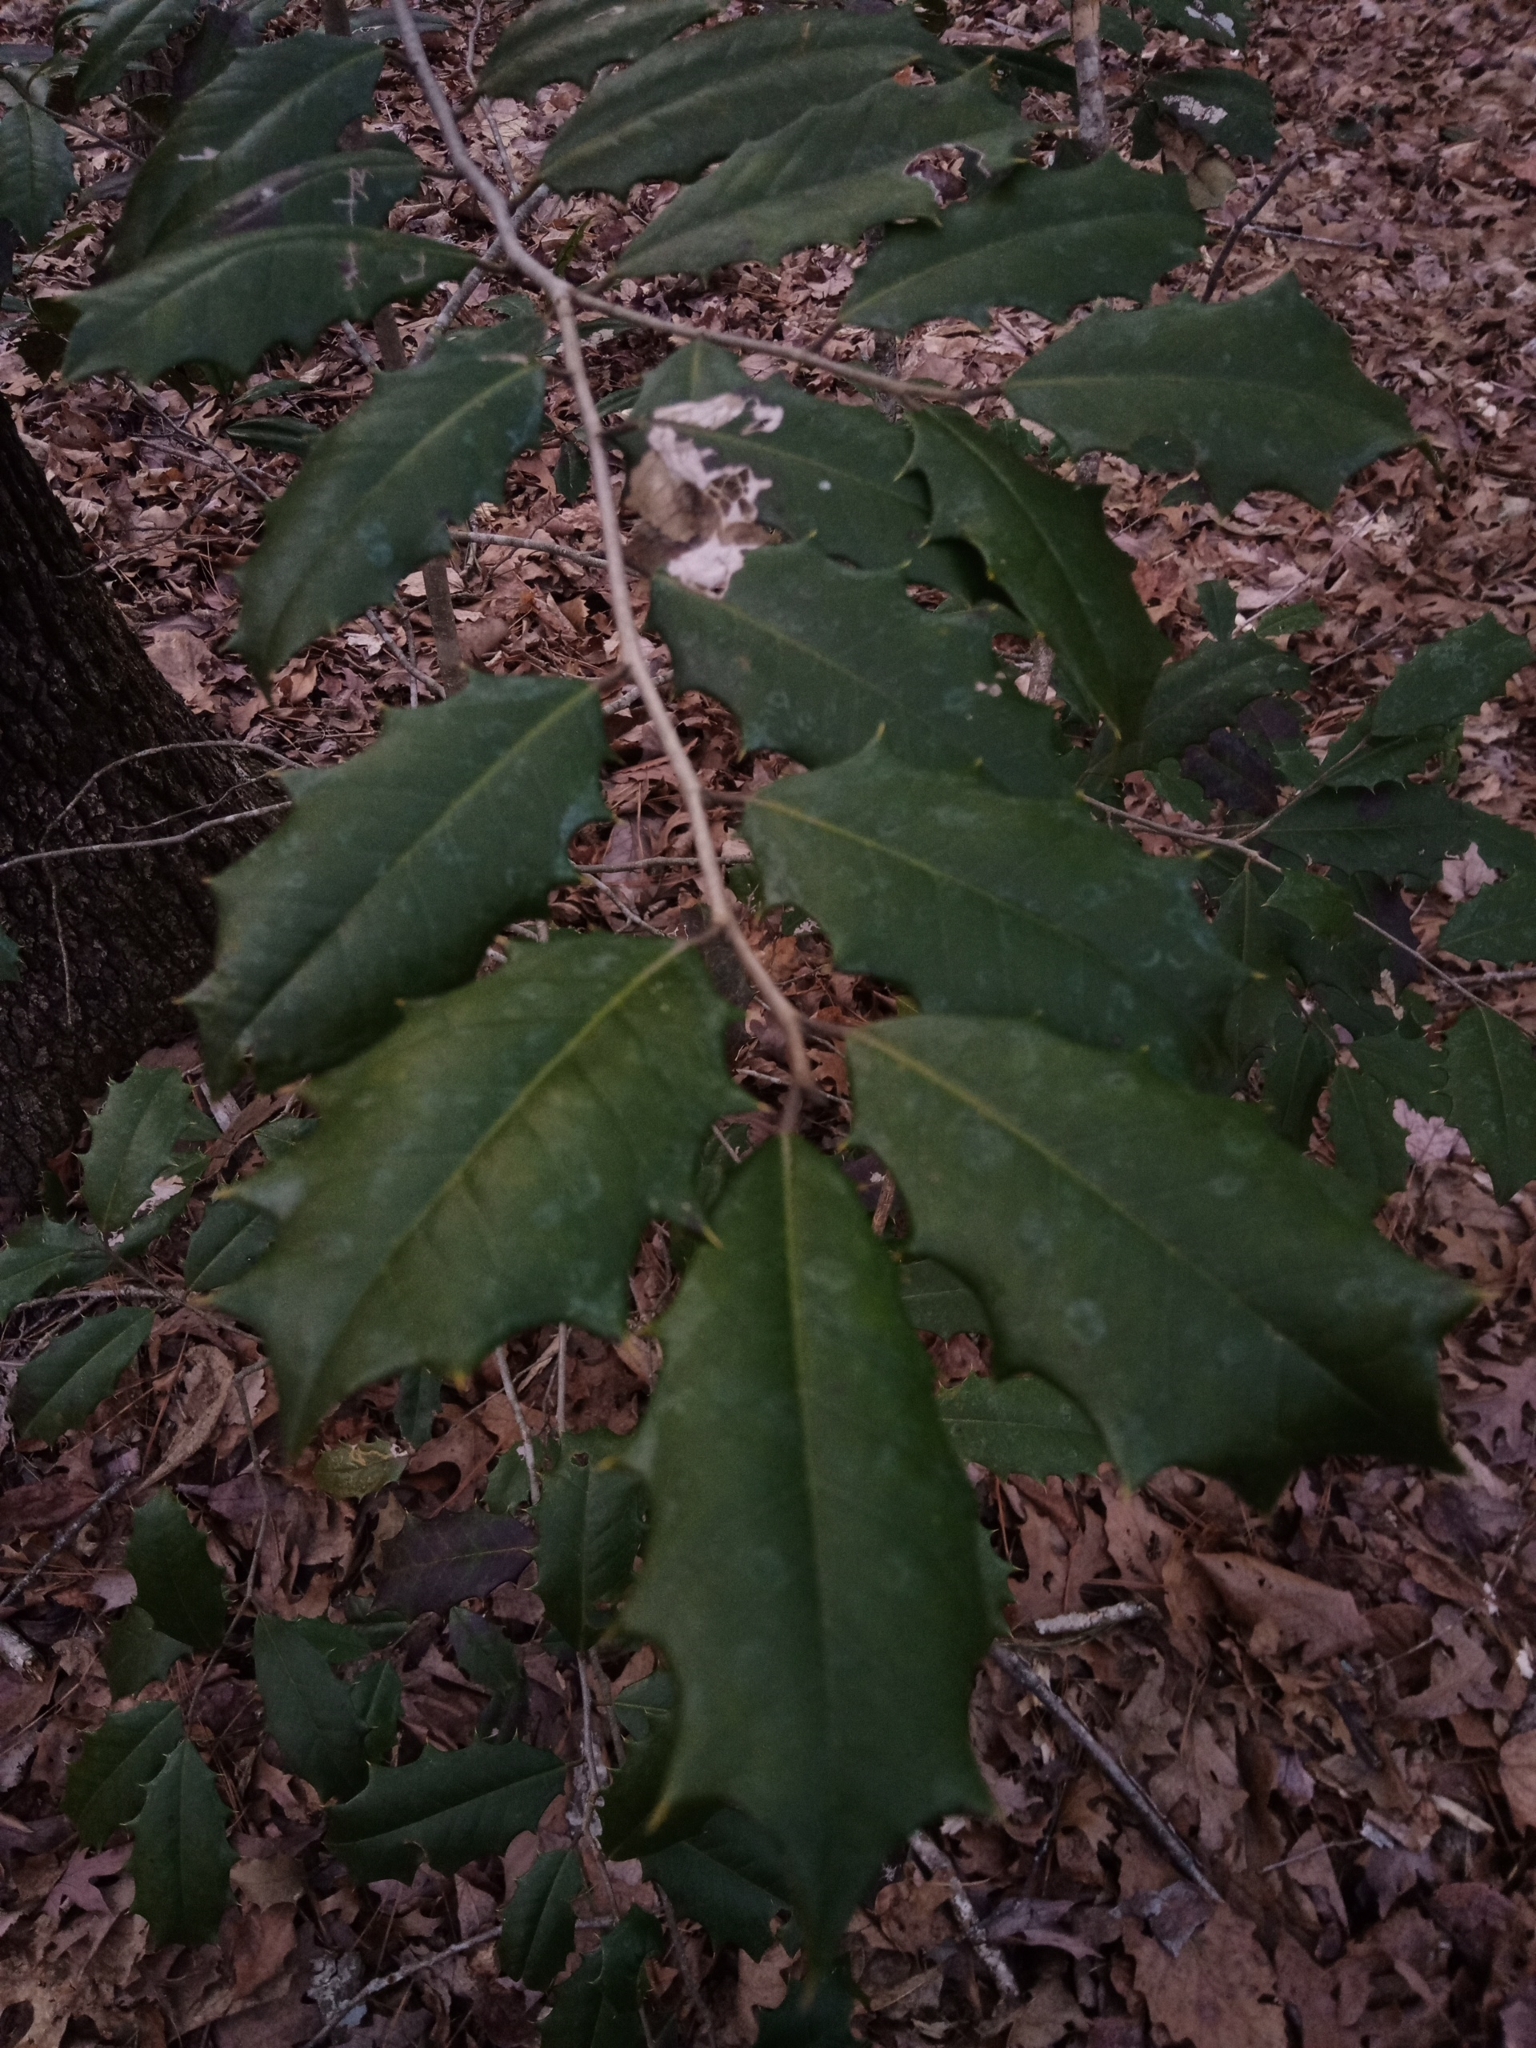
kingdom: Plantae
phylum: Tracheophyta
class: Magnoliopsida
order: Aquifoliales
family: Aquifoliaceae
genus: Ilex
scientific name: Ilex opaca
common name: American holly
